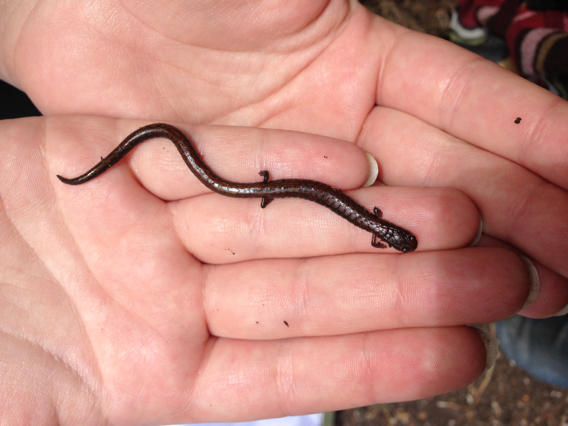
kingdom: Animalia
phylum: Chordata
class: Amphibia
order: Caudata
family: Plethodontidae
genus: Batrachoseps
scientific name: Batrachoseps attenuatus
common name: California slender salamander
